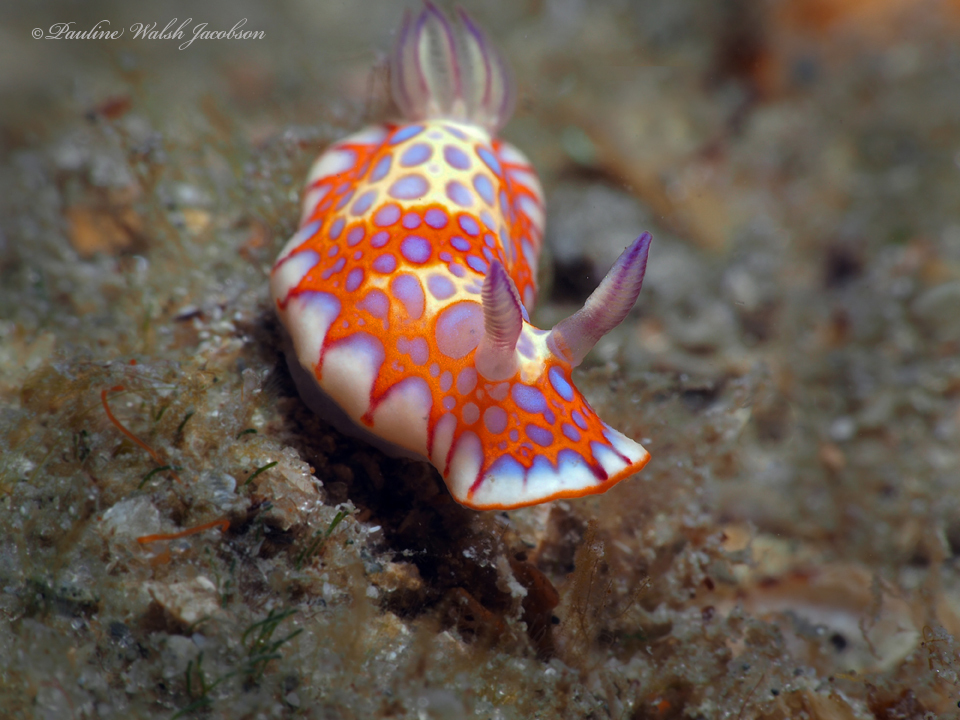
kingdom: Animalia
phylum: Mollusca
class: Gastropoda
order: Nudibranchia
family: Chromodorididae
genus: Felimida
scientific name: Felimida binza
